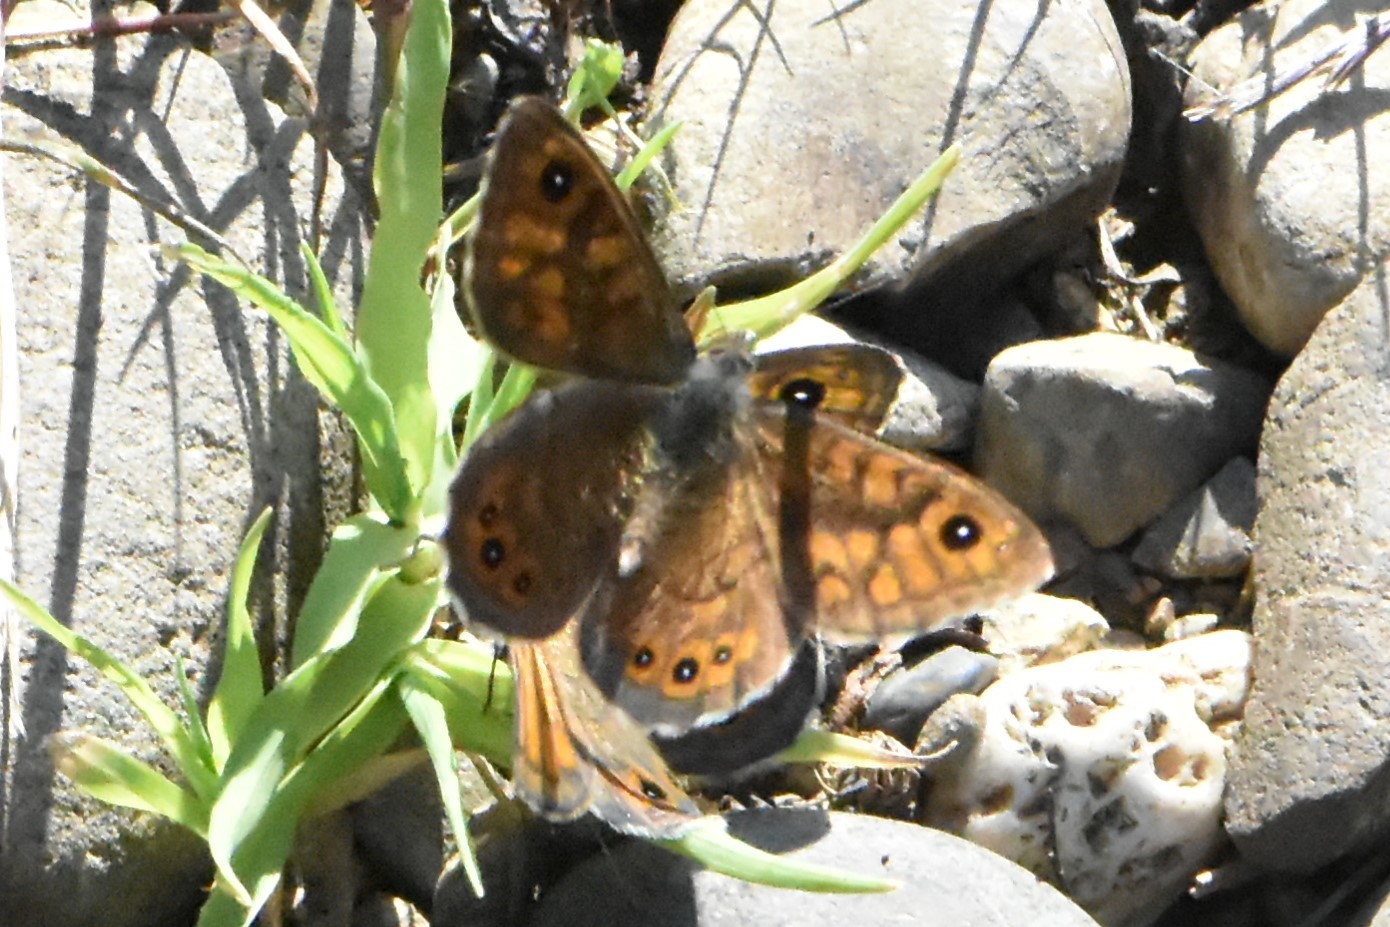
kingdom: Animalia
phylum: Arthropoda
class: Insecta
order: Lepidoptera
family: Nymphalidae
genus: Pararge
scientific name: Pararge Lasiommata megera
